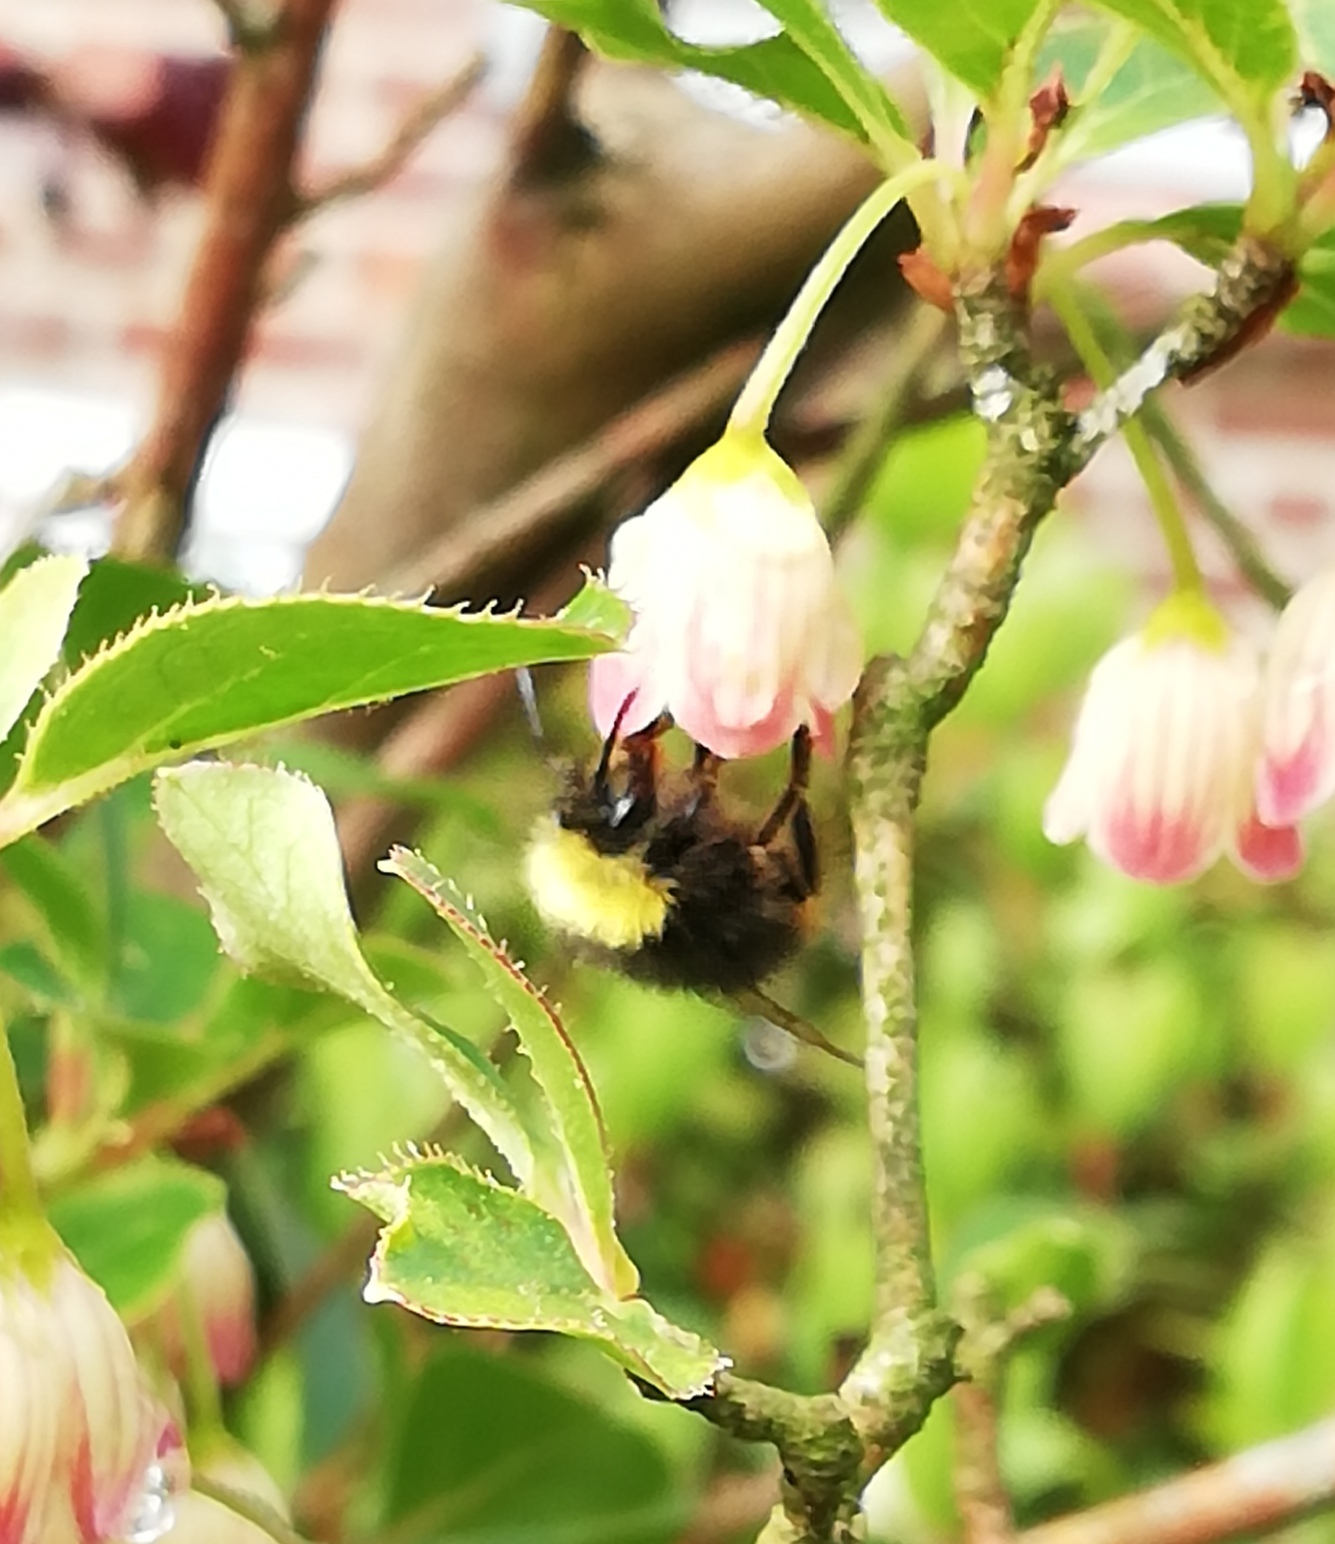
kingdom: Animalia
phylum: Arthropoda
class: Insecta
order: Hymenoptera
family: Apidae
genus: Bombus
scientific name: Bombus pratorum
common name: Early humble-bee
